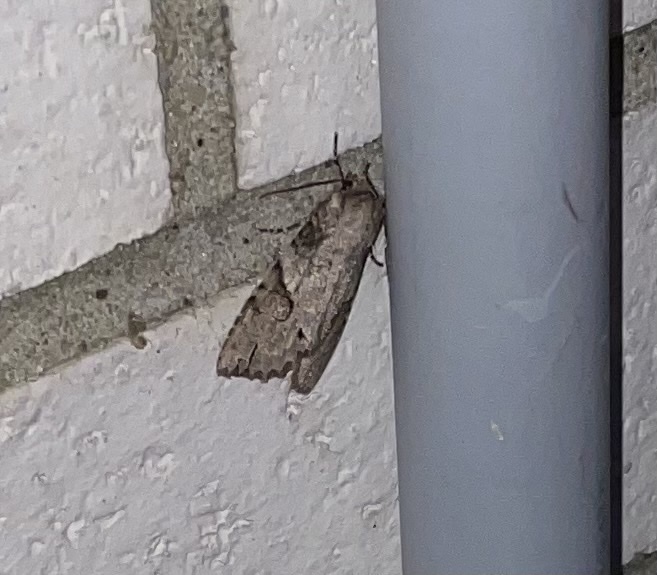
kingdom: Animalia
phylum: Arthropoda
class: Insecta
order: Lepidoptera
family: Noctuidae
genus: Achatia
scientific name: Achatia latex
